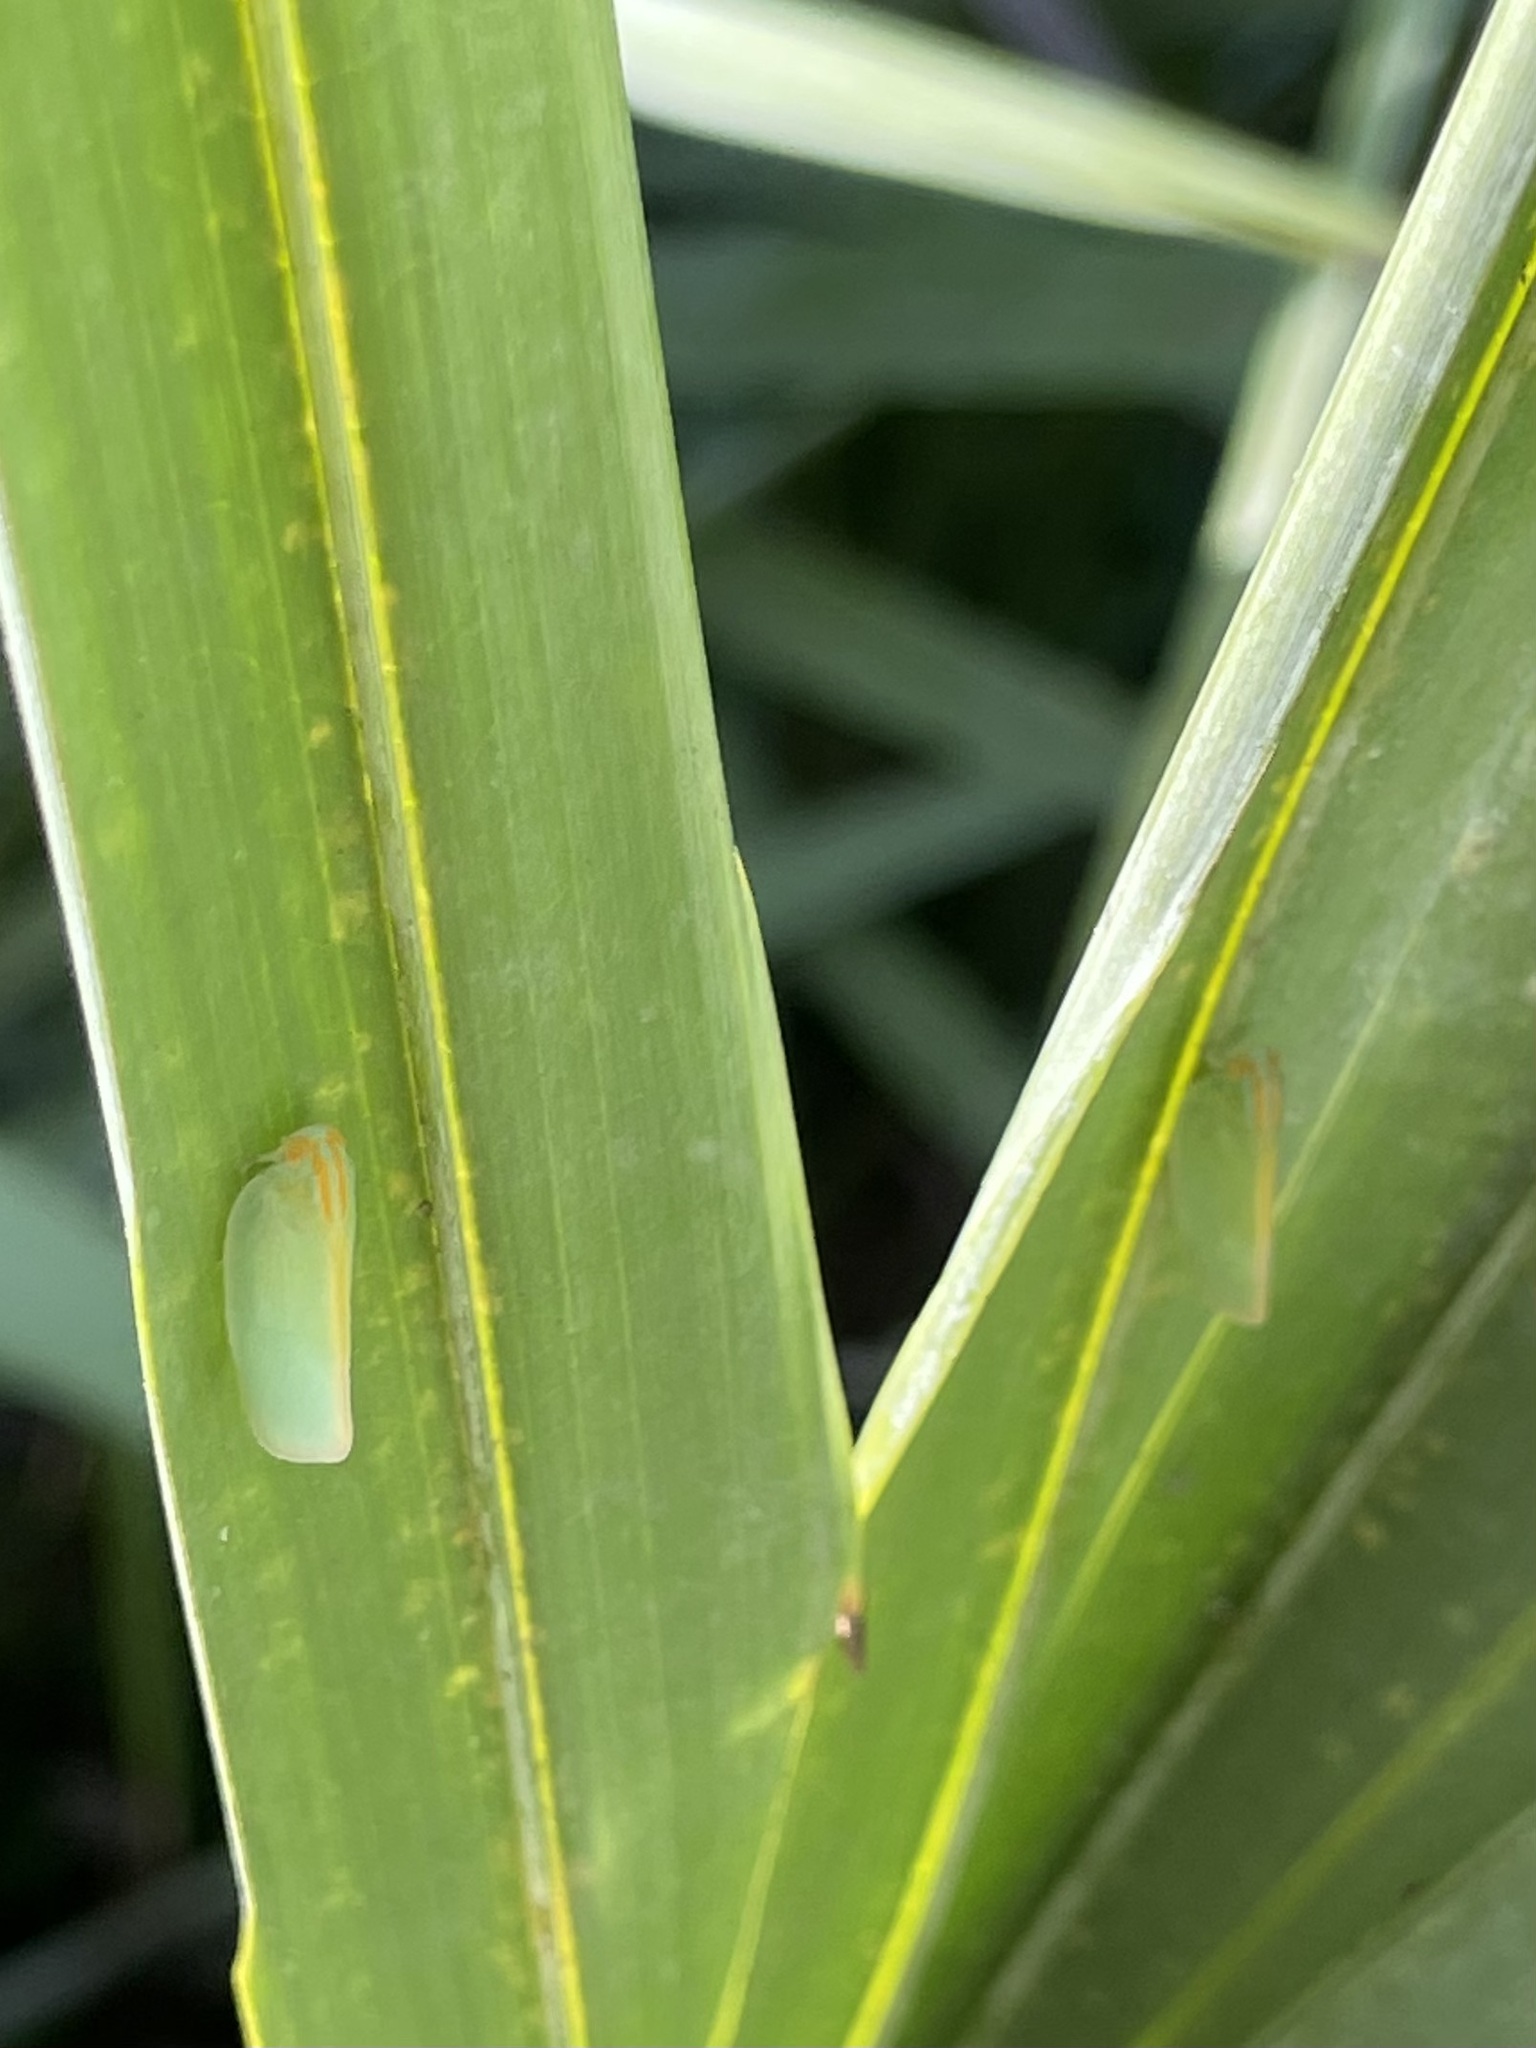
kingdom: Animalia
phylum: Arthropoda
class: Insecta
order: Hemiptera
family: Flatidae
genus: Ormenaria
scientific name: Ormenaria rufifascia
